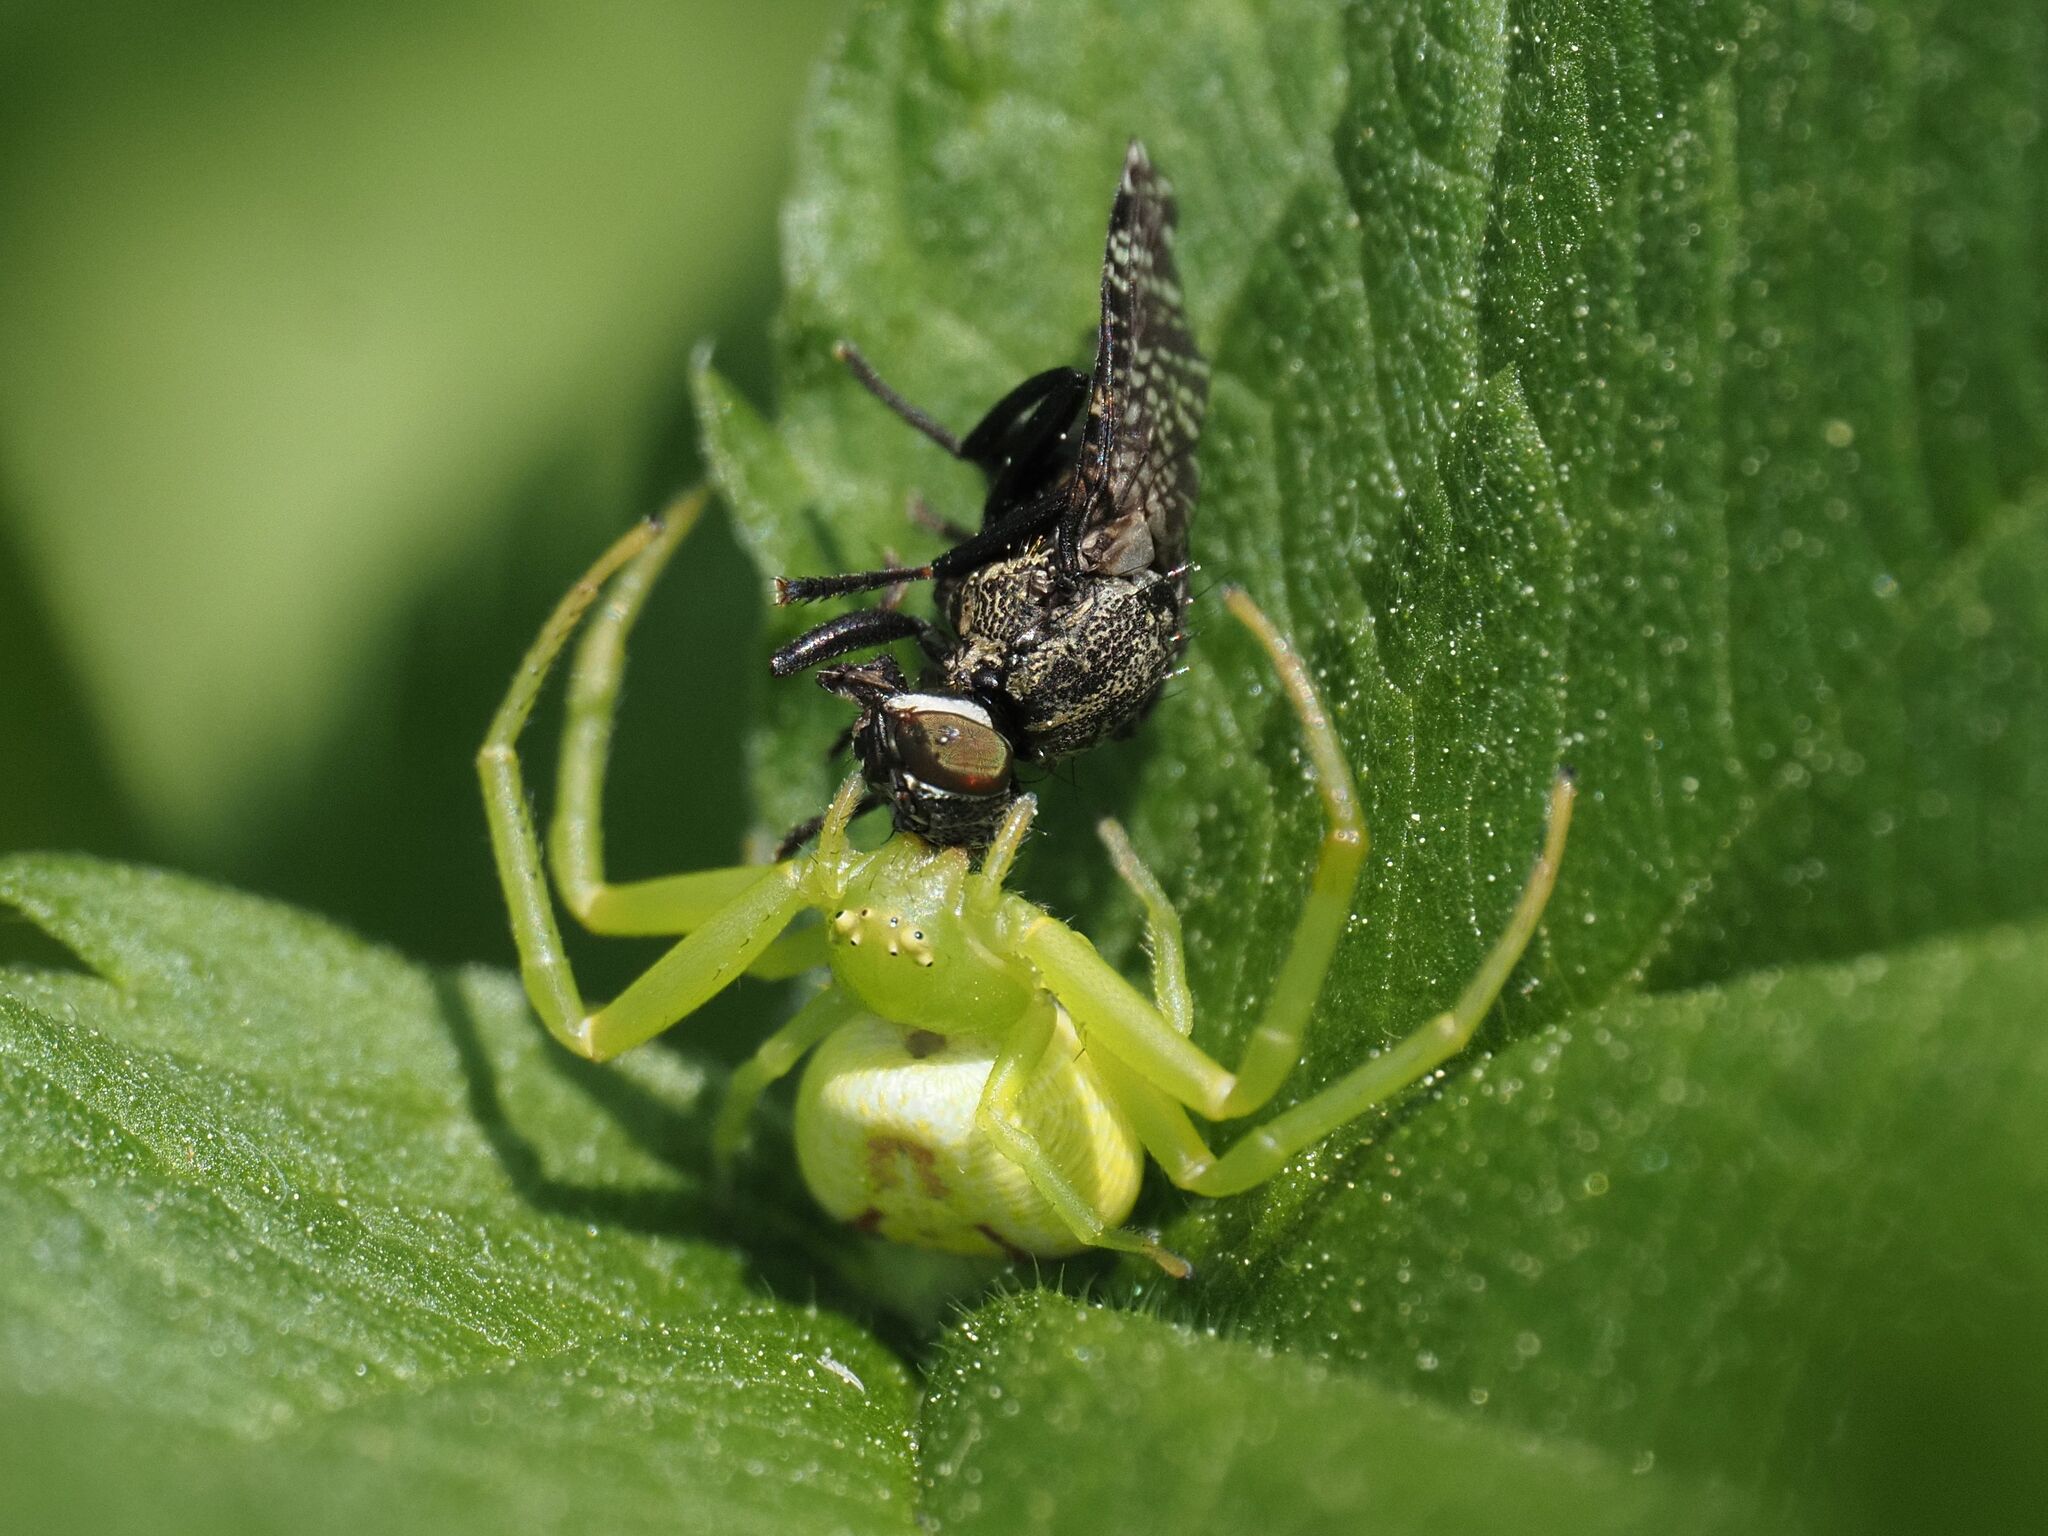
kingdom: Animalia
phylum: Arthropoda
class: Arachnida
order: Araneae
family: Thomisidae
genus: Ebrechtella
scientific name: Ebrechtella tricuspidata
